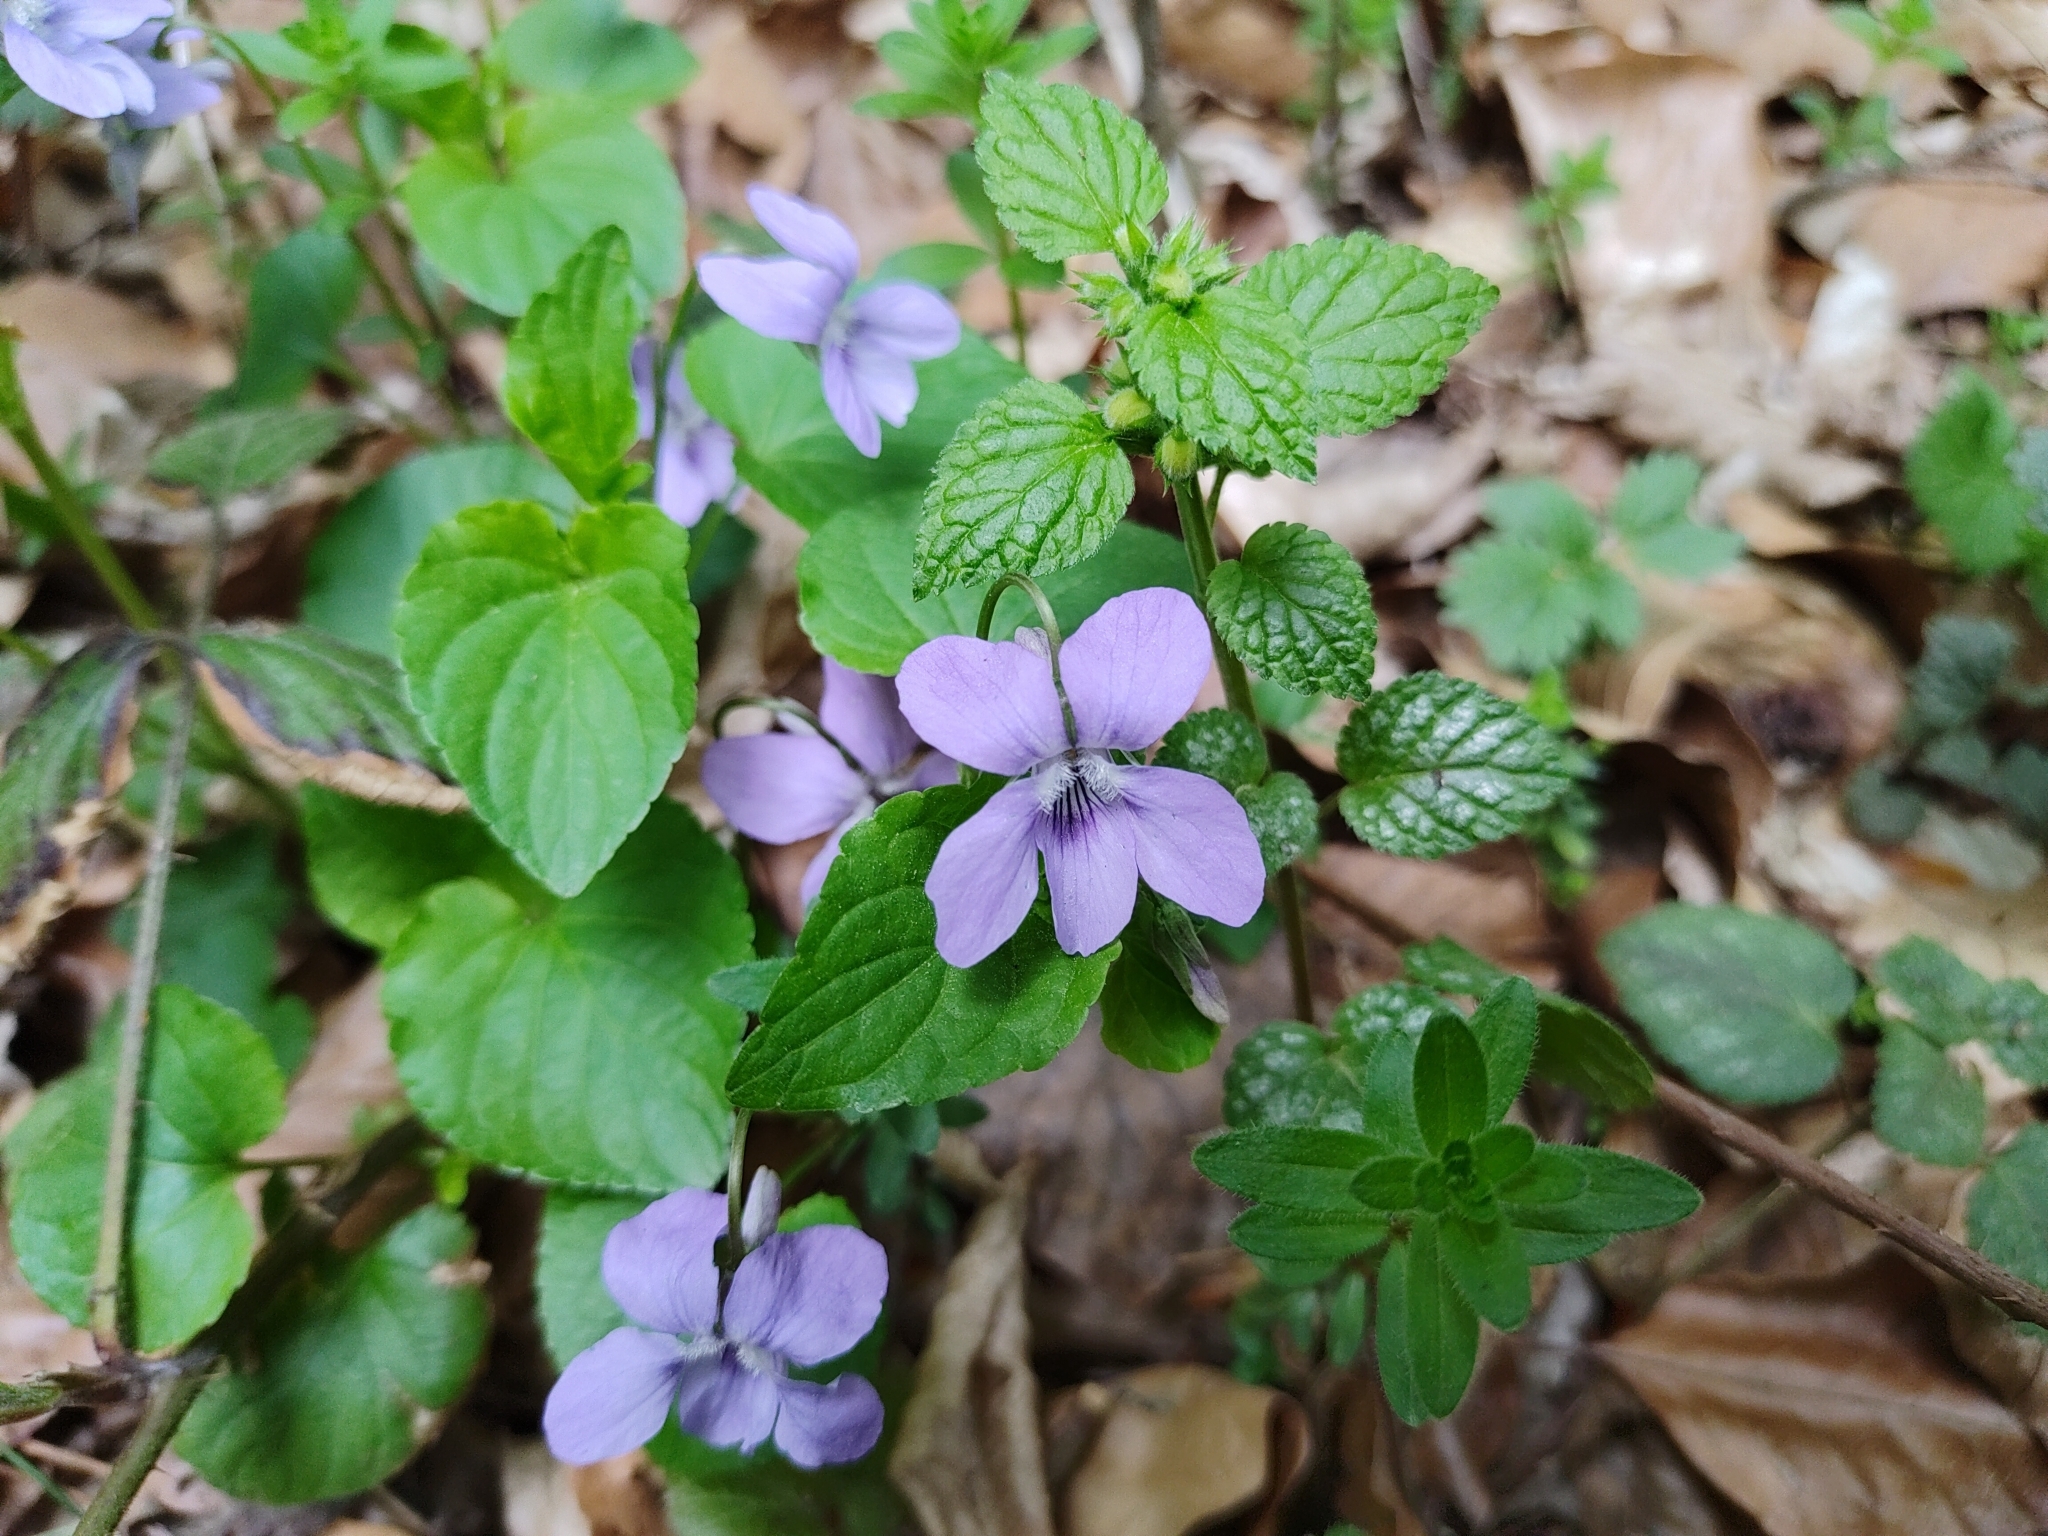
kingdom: Plantae
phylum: Tracheophyta
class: Magnoliopsida
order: Malpighiales
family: Violaceae
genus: Viola
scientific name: Viola reichenbachiana
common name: Early dog-violet
